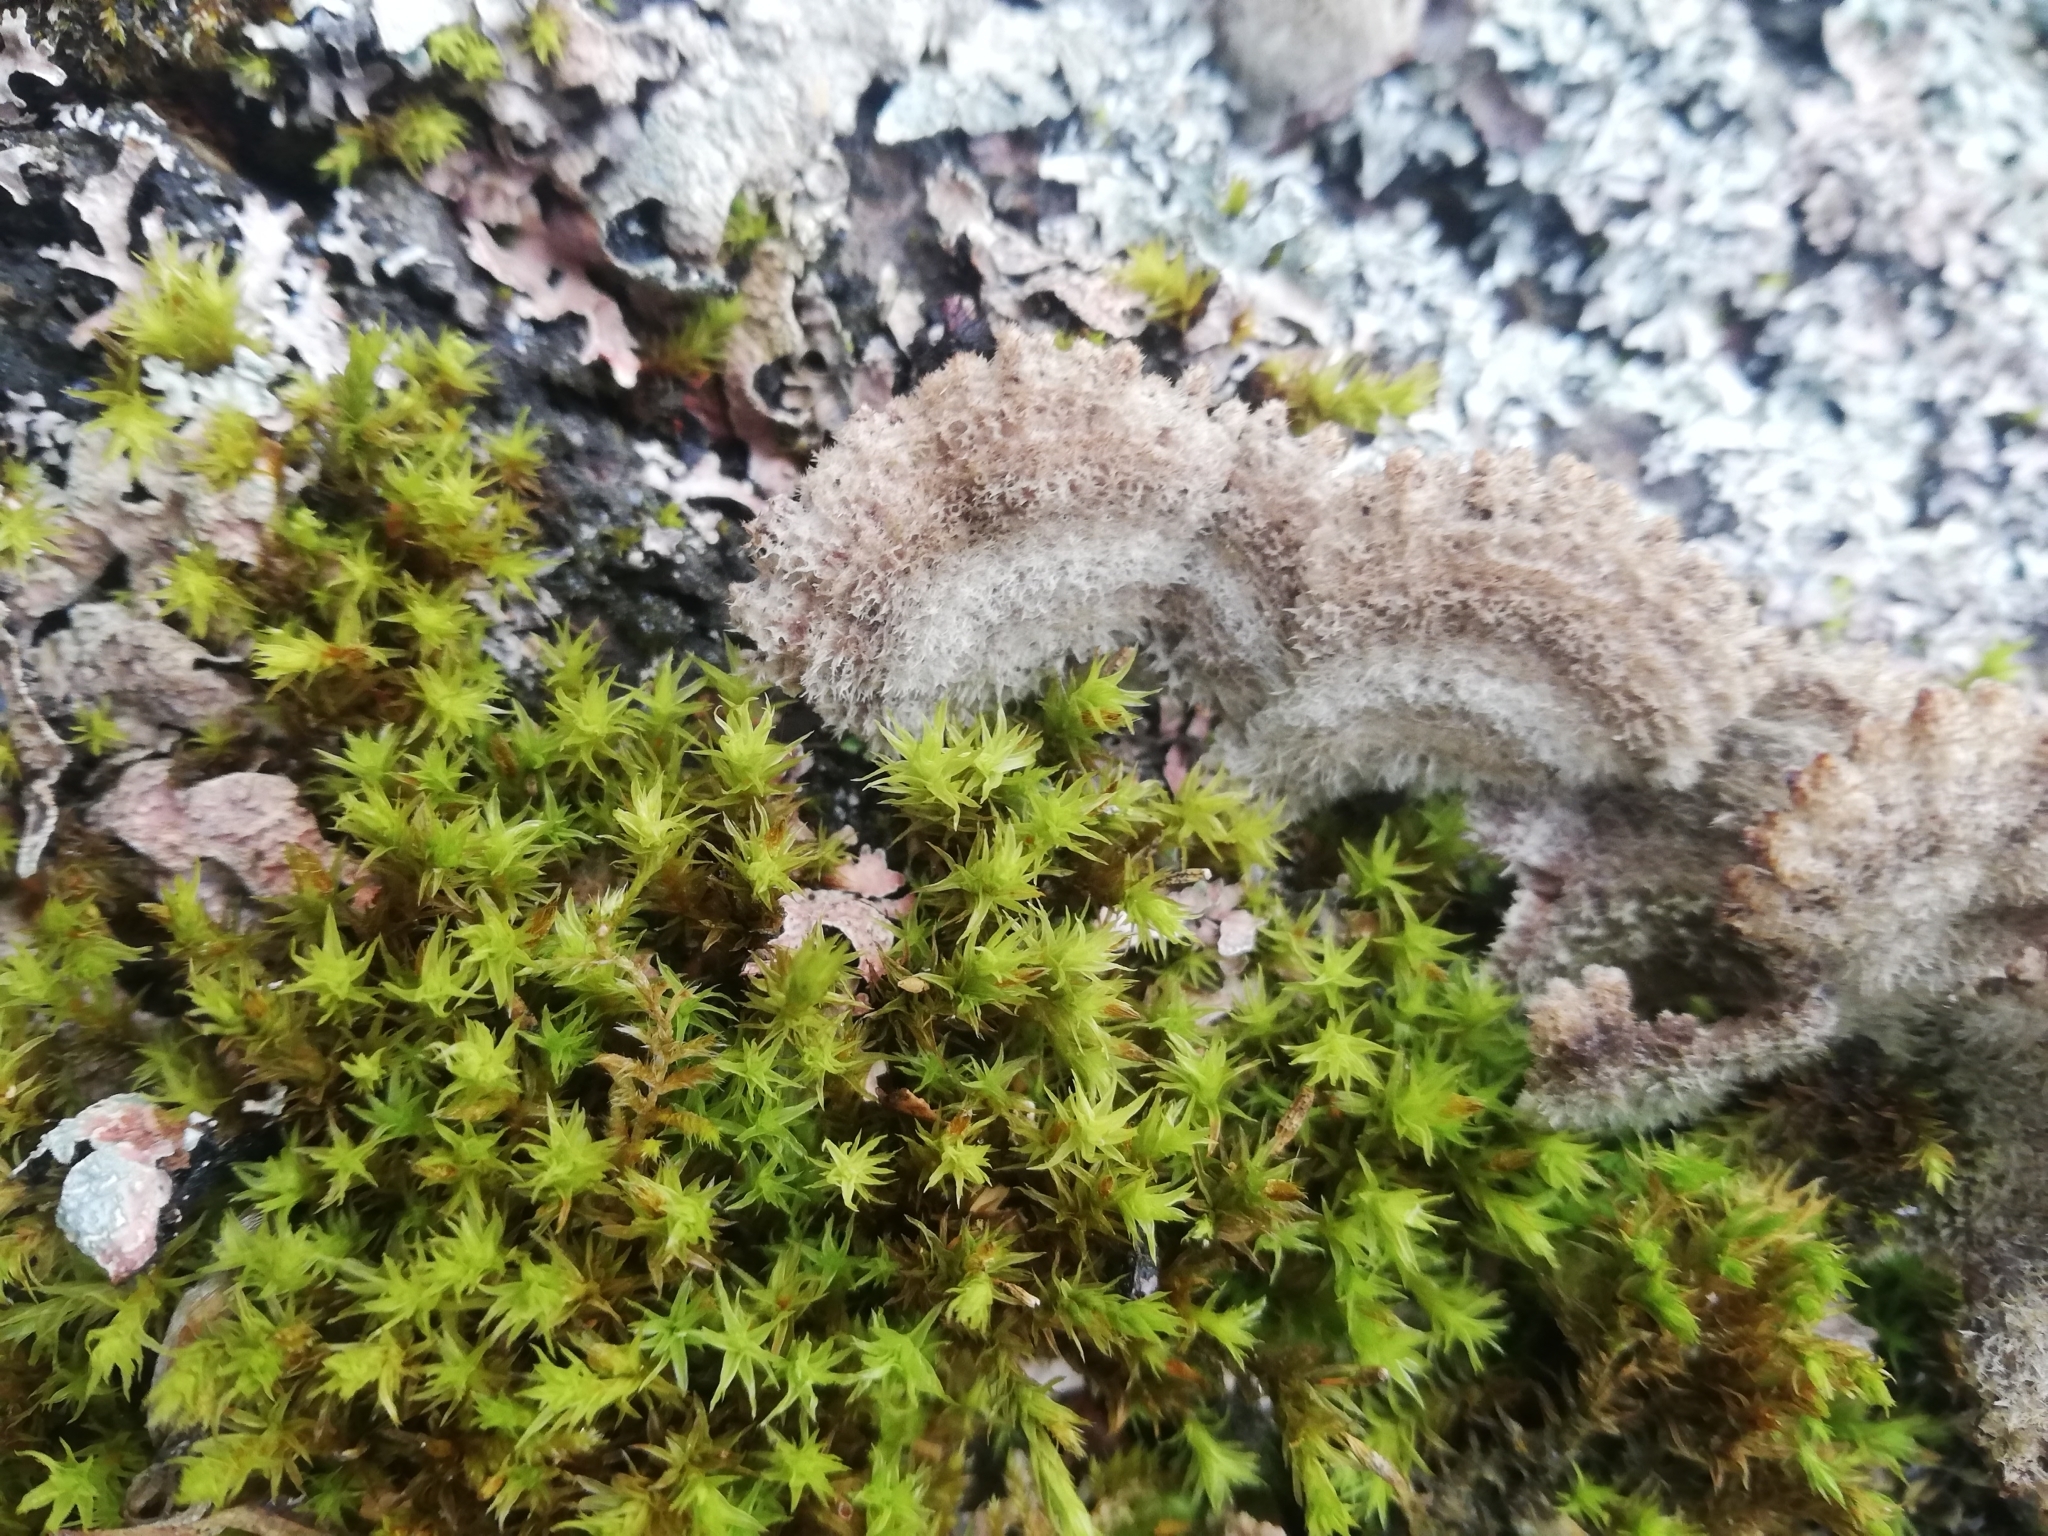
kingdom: Fungi
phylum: Basidiomycota
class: Agaricomycetes
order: Agaricales
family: Schizophyllaceae
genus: Schizophyllum
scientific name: Schizophyllum commune
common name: Common porecrust
